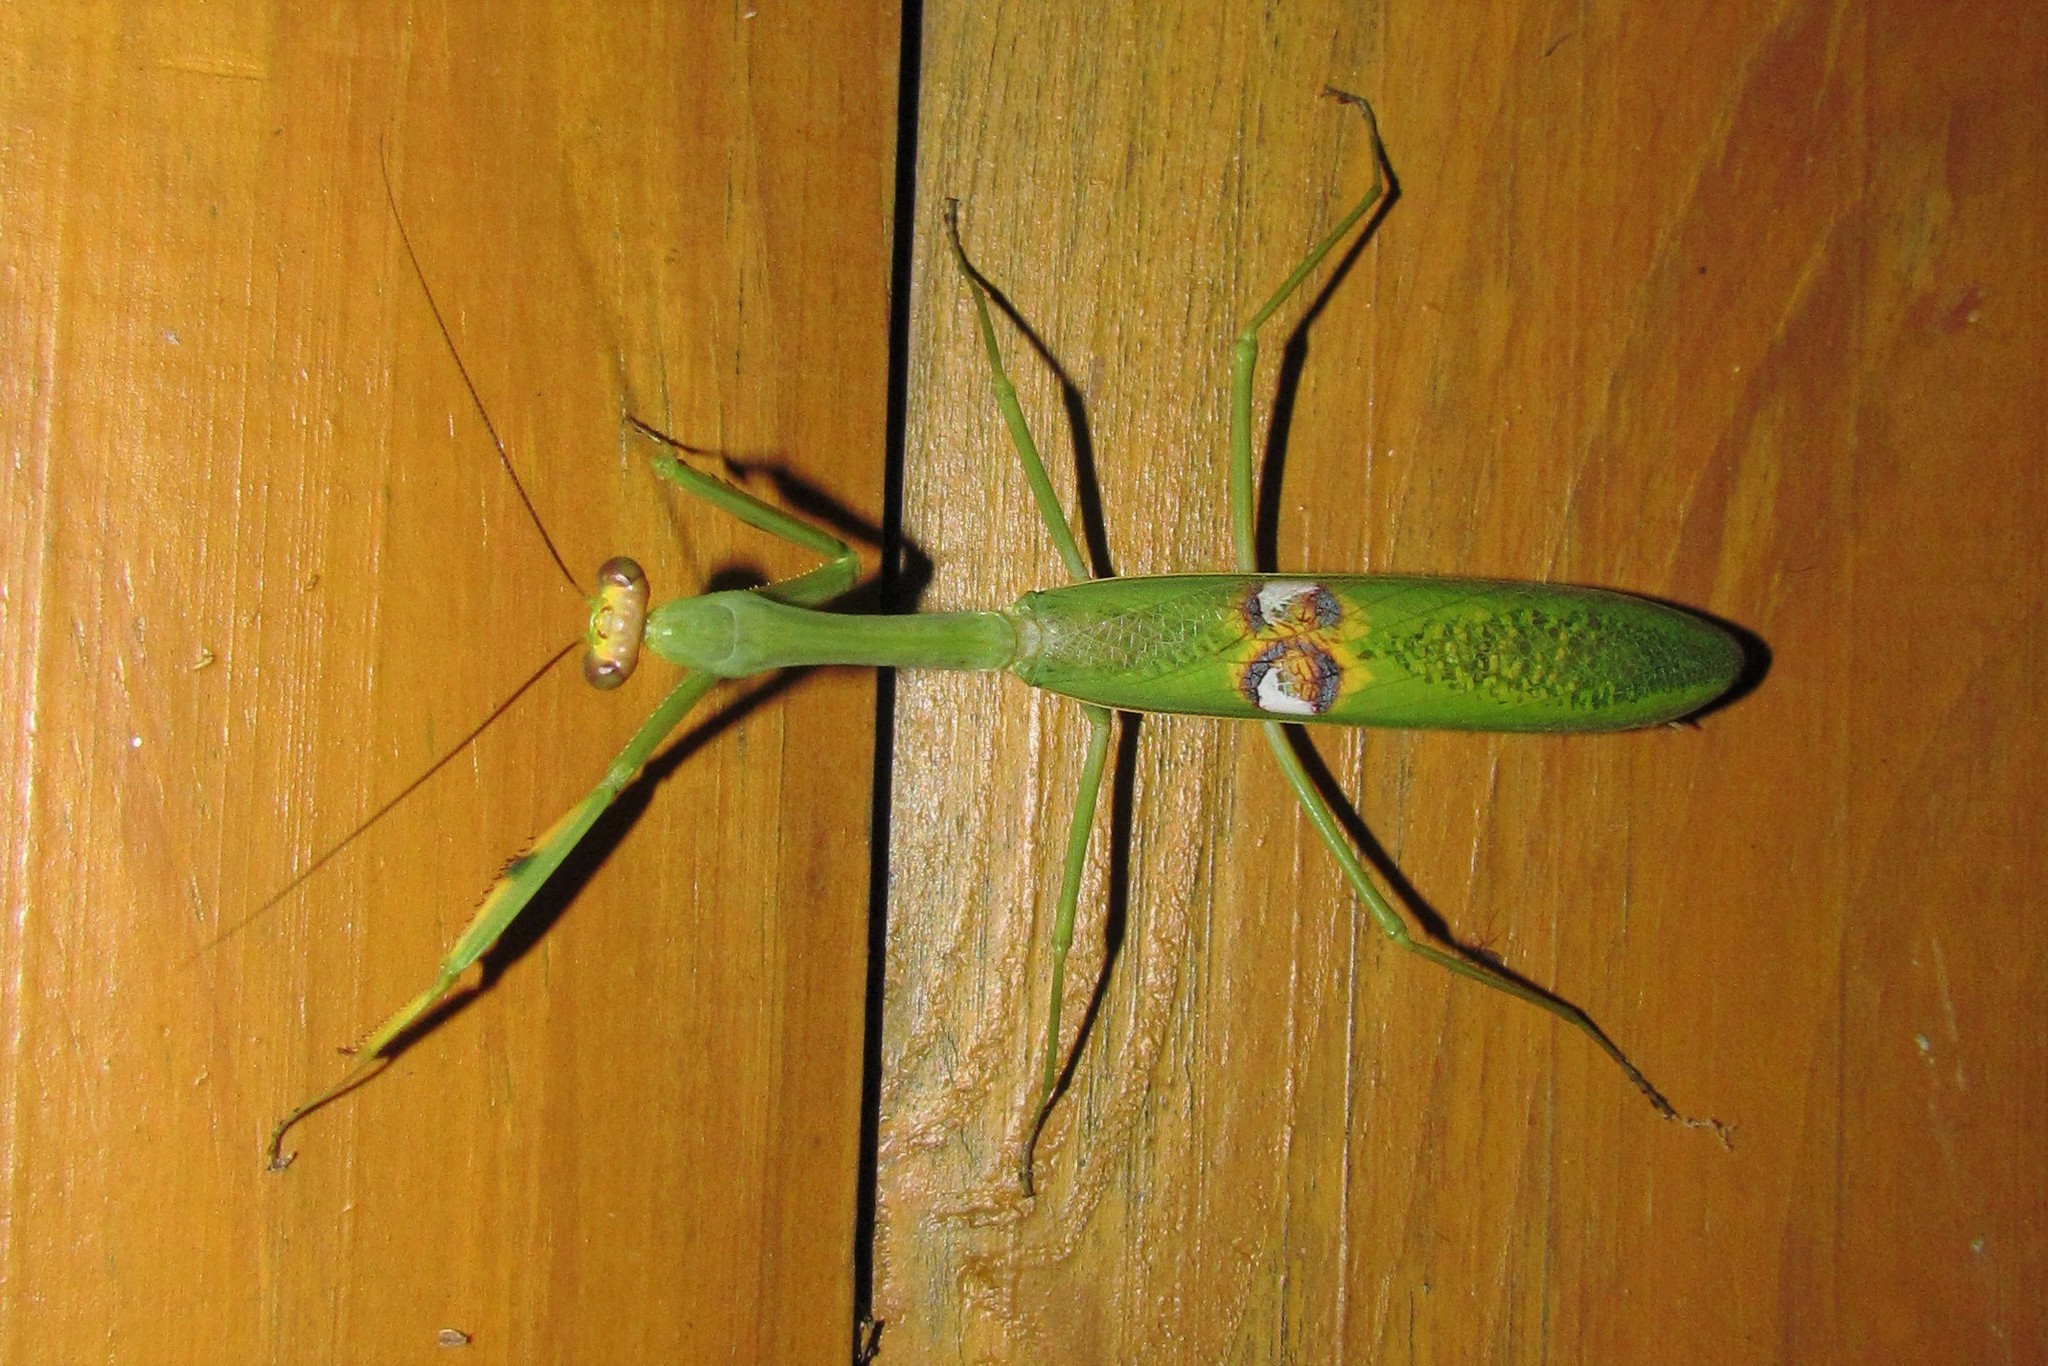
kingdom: Animalia
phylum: Arthropoda
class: Insecta
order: Mantodea
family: Mantidae
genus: Stagmatoptera
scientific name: Stagmatoptera hyaloptera
